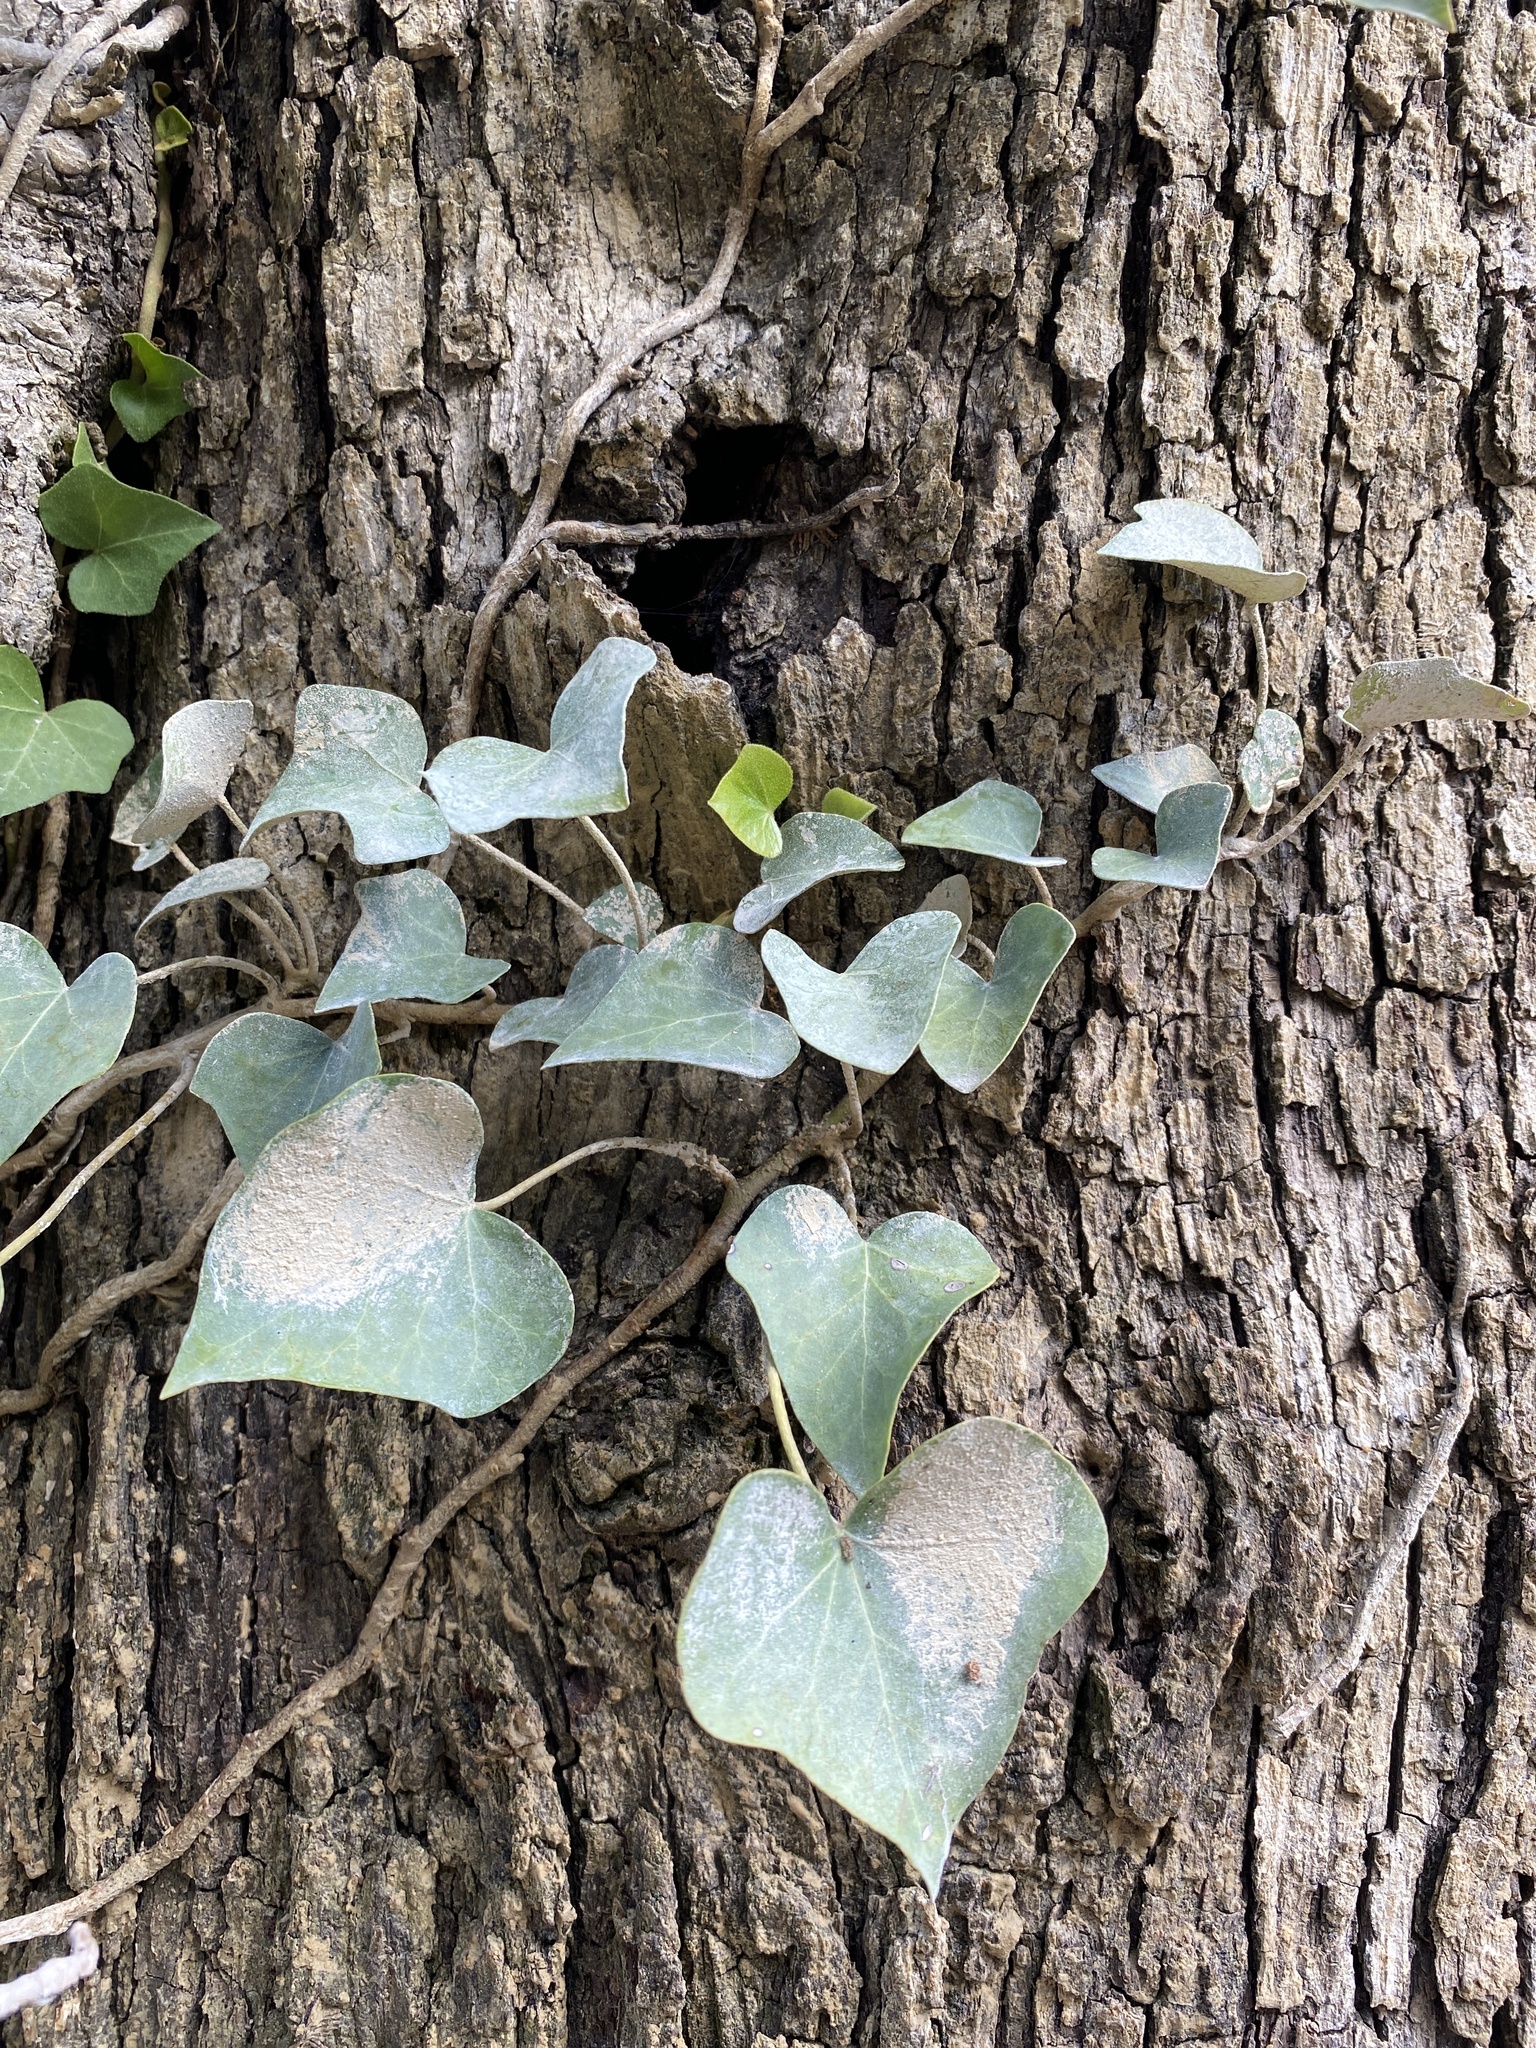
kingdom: Plantae
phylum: Tracheophyta
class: Magnoliopsida
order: Apiales
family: Araliaceae
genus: Hedera
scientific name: Hedera helix
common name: Ivy
